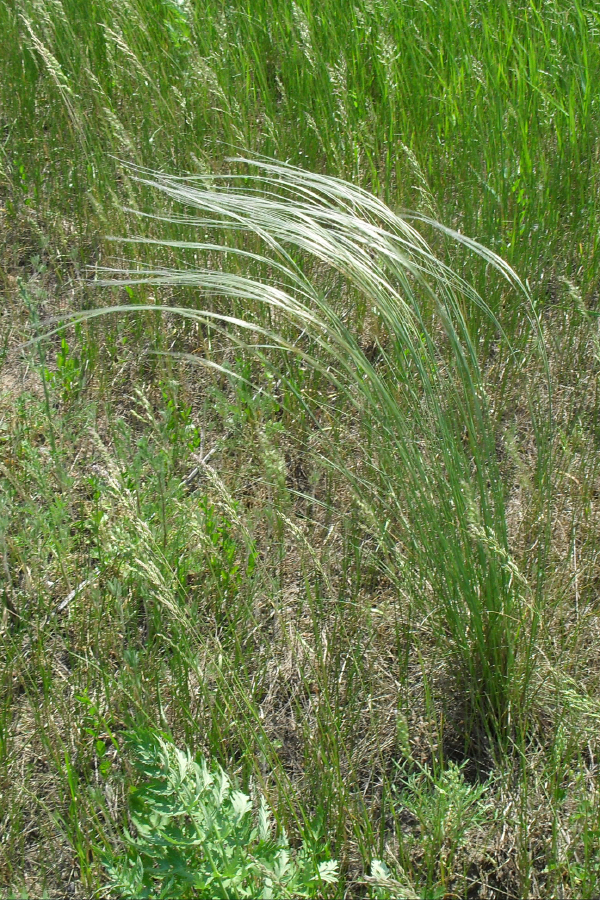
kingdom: Plantae
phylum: Tracheophyta
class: Liliopsida
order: Poales
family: Poaceae
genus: Stipa
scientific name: Stipa pennata
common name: European feather grass
